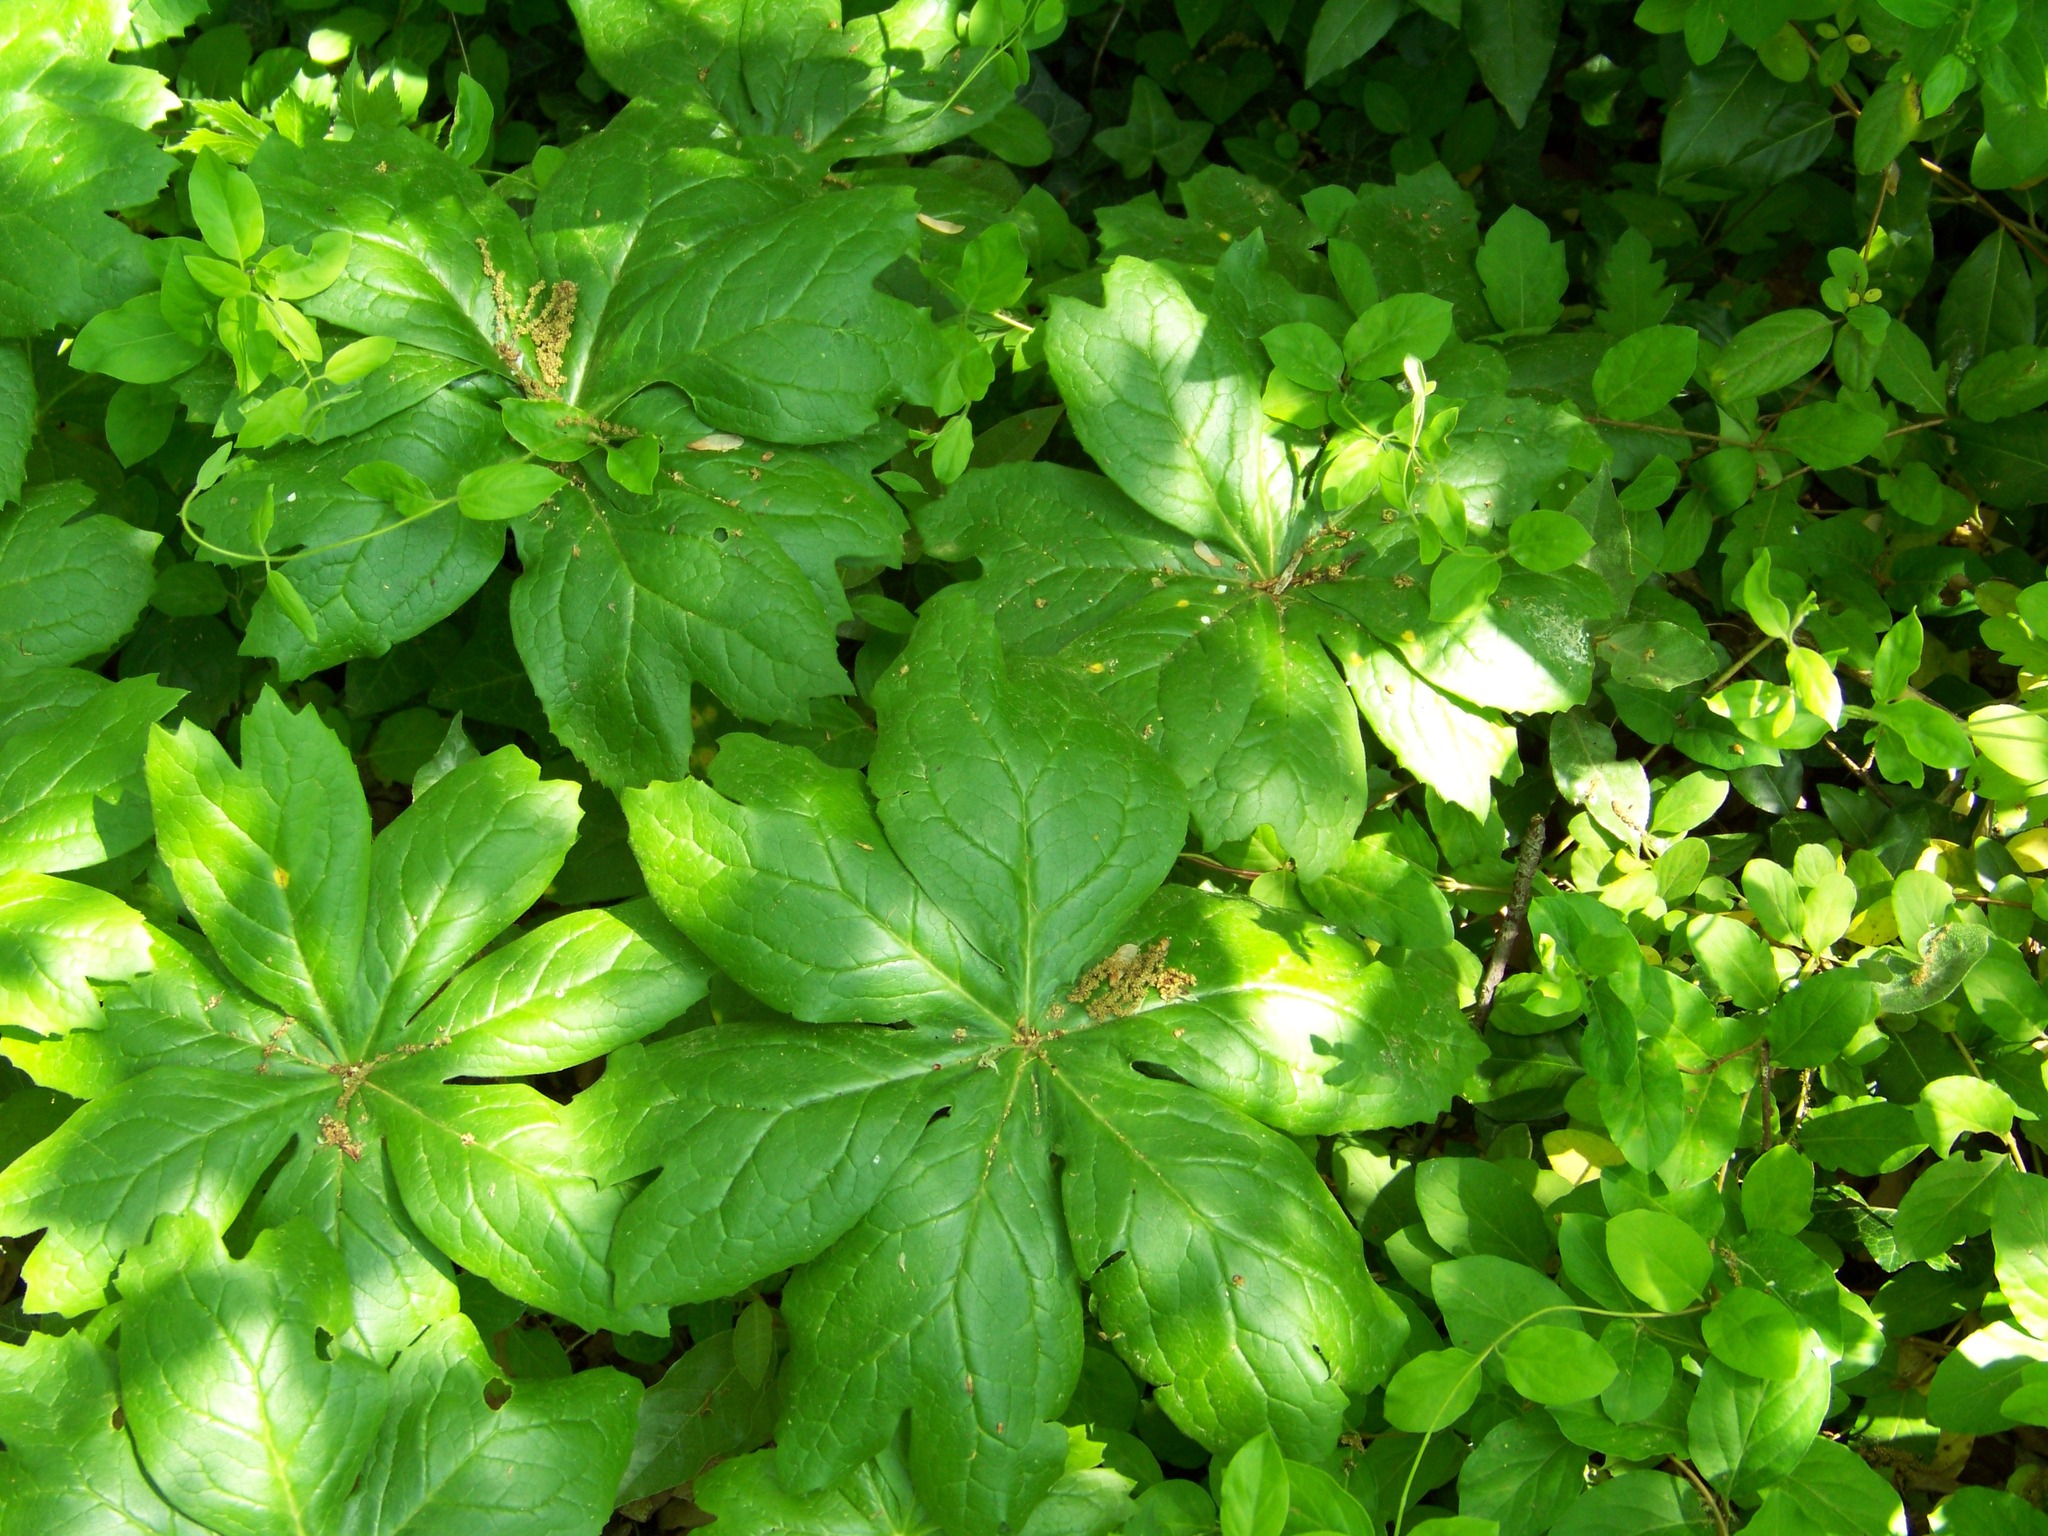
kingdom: Plantae
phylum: Tracheophyta
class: Magnoliopsida
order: Ranunculales
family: Berberidaceae
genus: Podophyllum
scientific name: Podophyllum peltatum
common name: Wild mandrake
